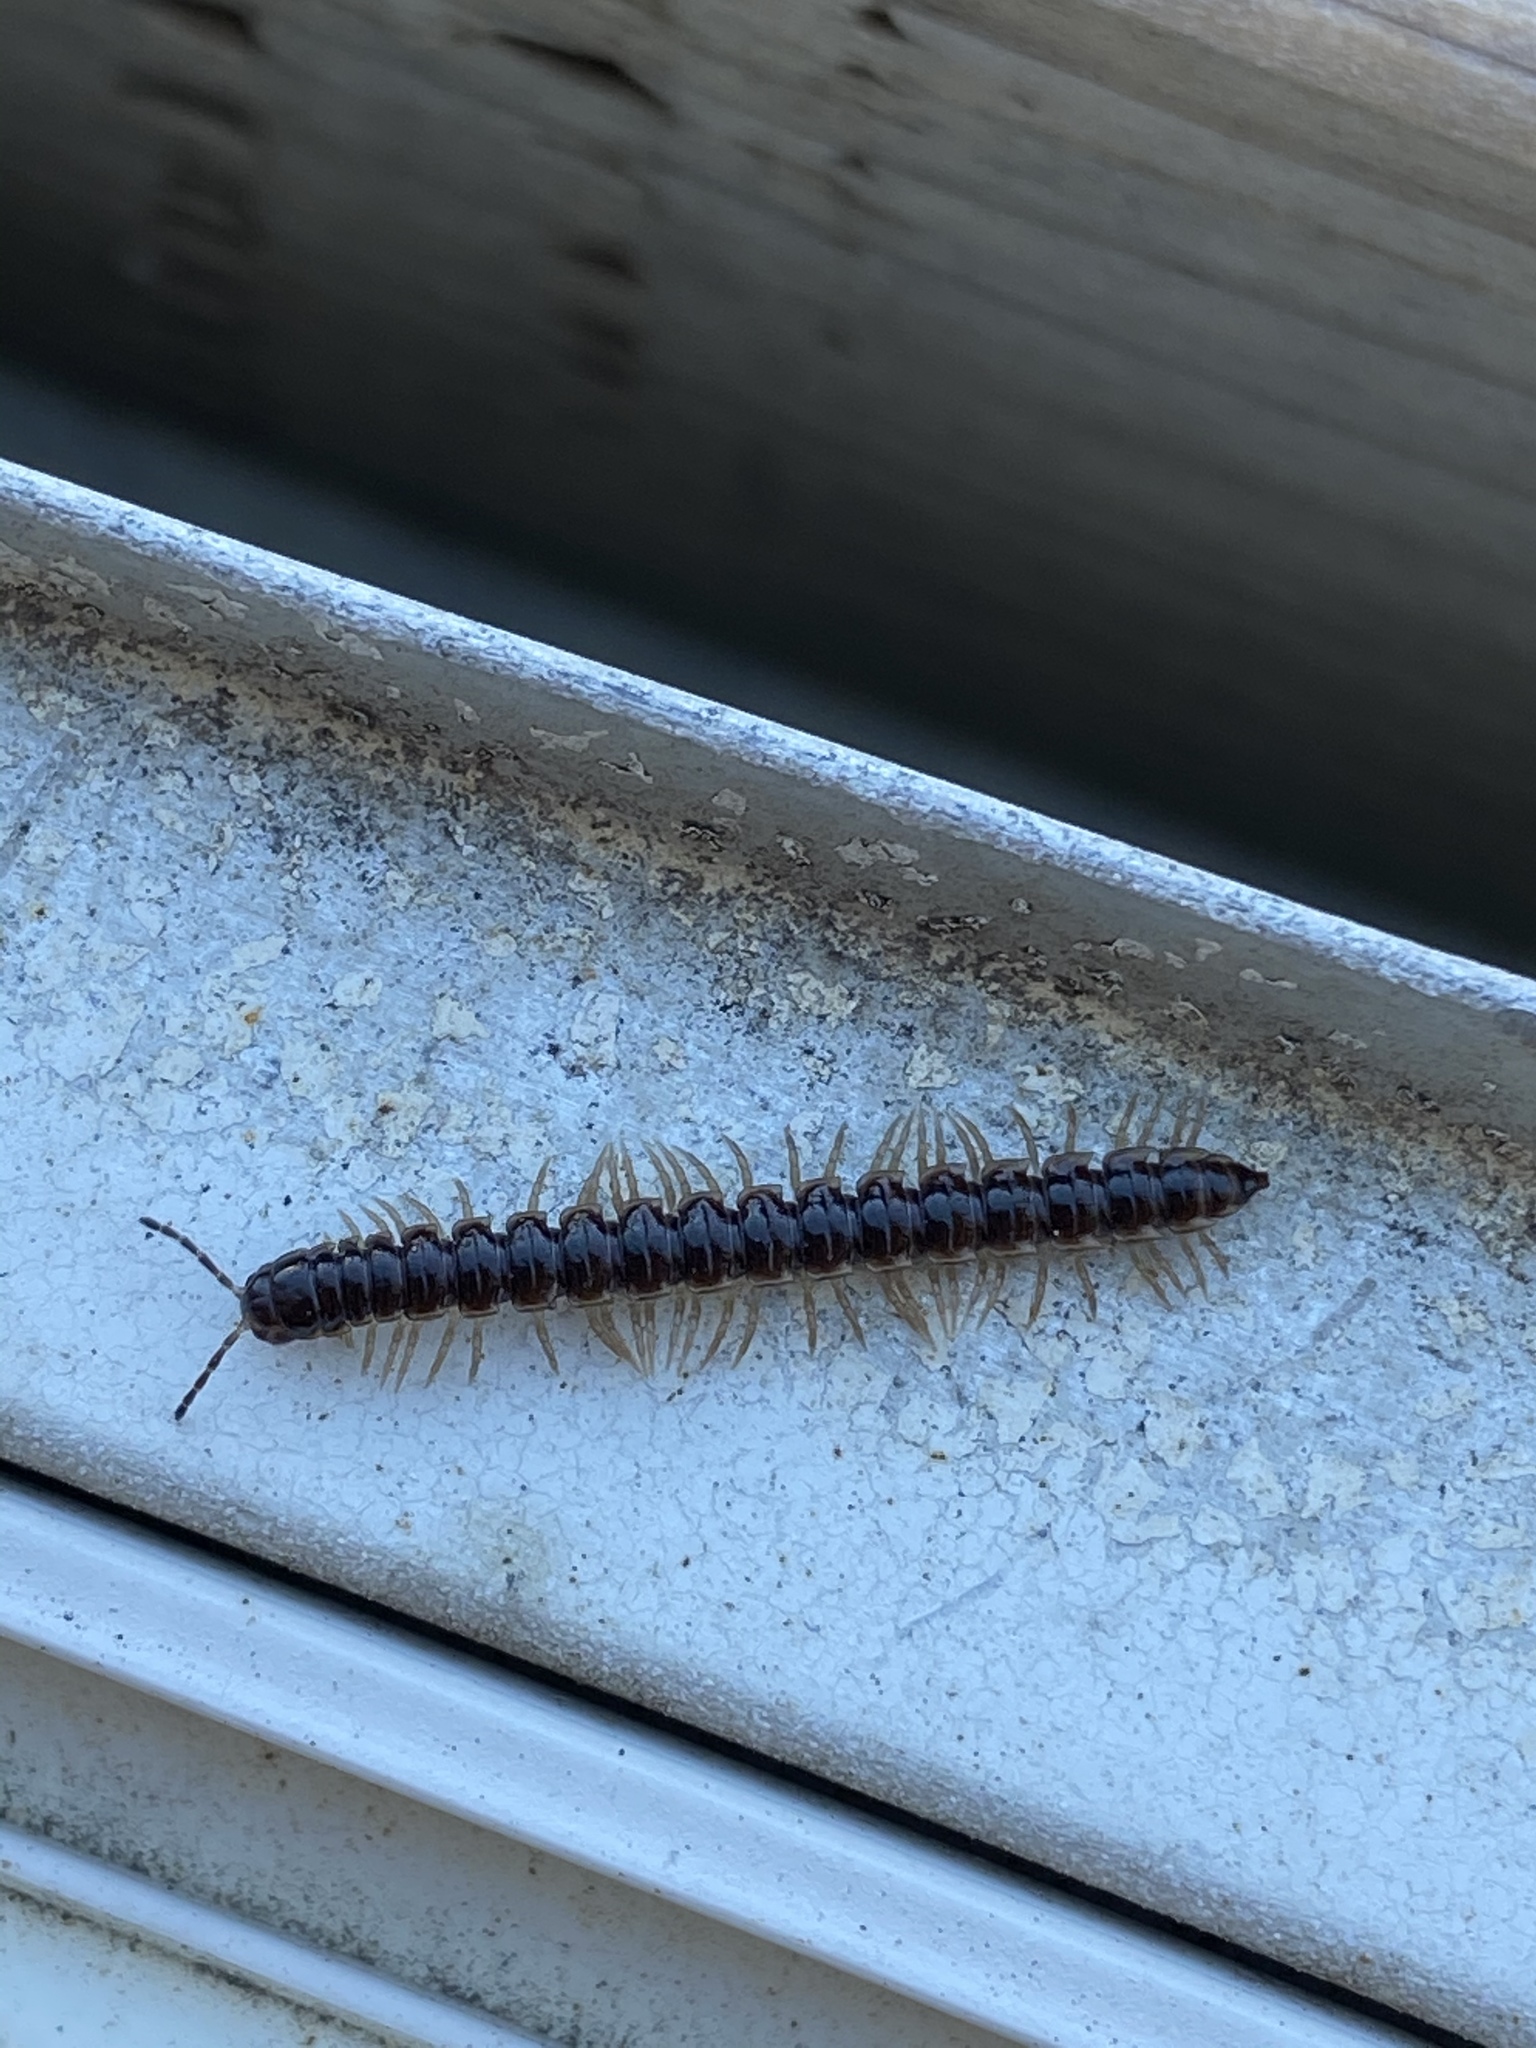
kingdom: Animalia
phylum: Arthropoda
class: Diplopoda
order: Polydesmida
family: Paradoxosomatidae
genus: Oxidus
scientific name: Oxidus gracilis
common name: Greenhouse millipede
